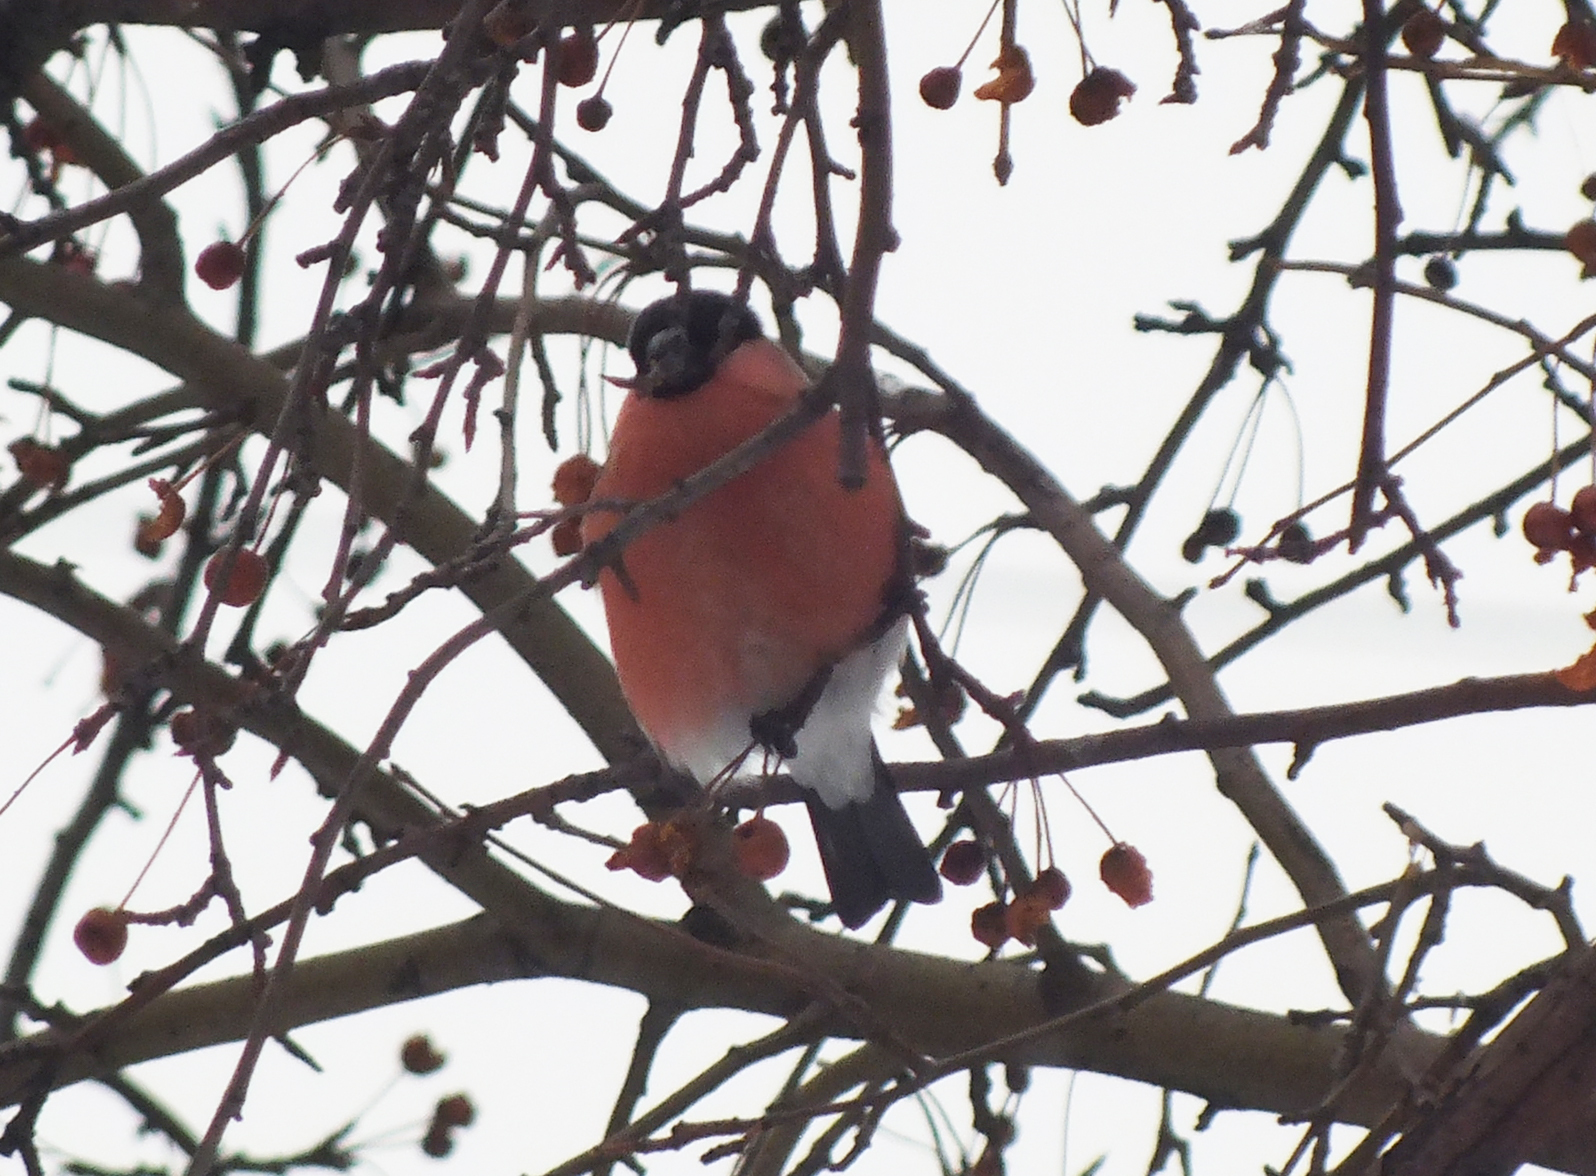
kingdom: Animalia
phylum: Chordata
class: Aves
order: Passeriformes
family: Fringillidae
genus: Pyrrhula
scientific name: Pyrrhula pyrrhula
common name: Eurasian bullfinch
